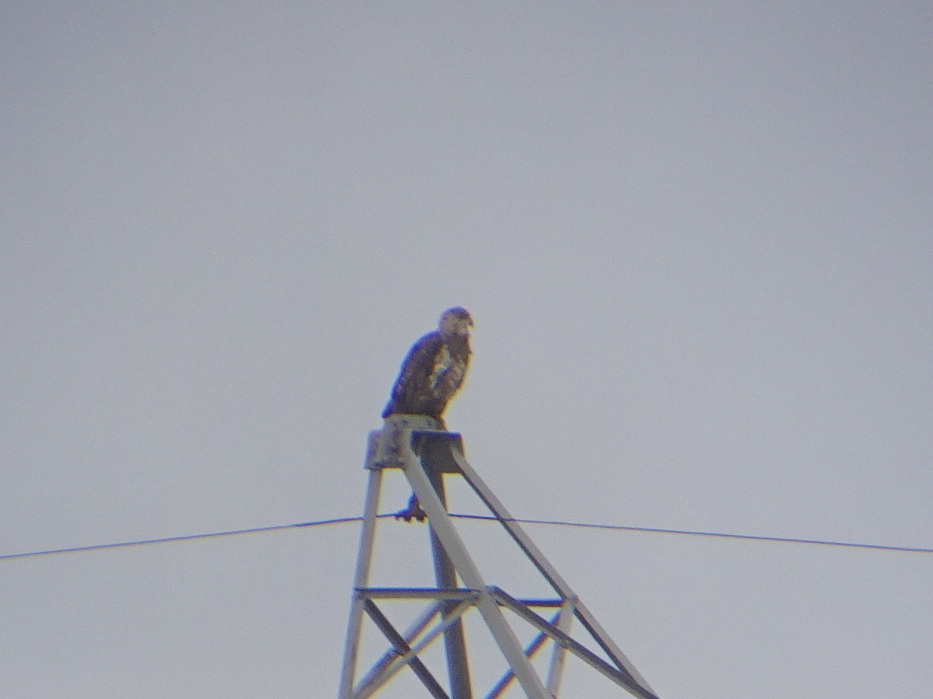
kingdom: Animalia
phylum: Chordata
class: Aves
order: Accipitriformes
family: Accipitridae
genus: Haliaeetus
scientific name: Haliaeetus leucocephalus
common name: Bald eagle
